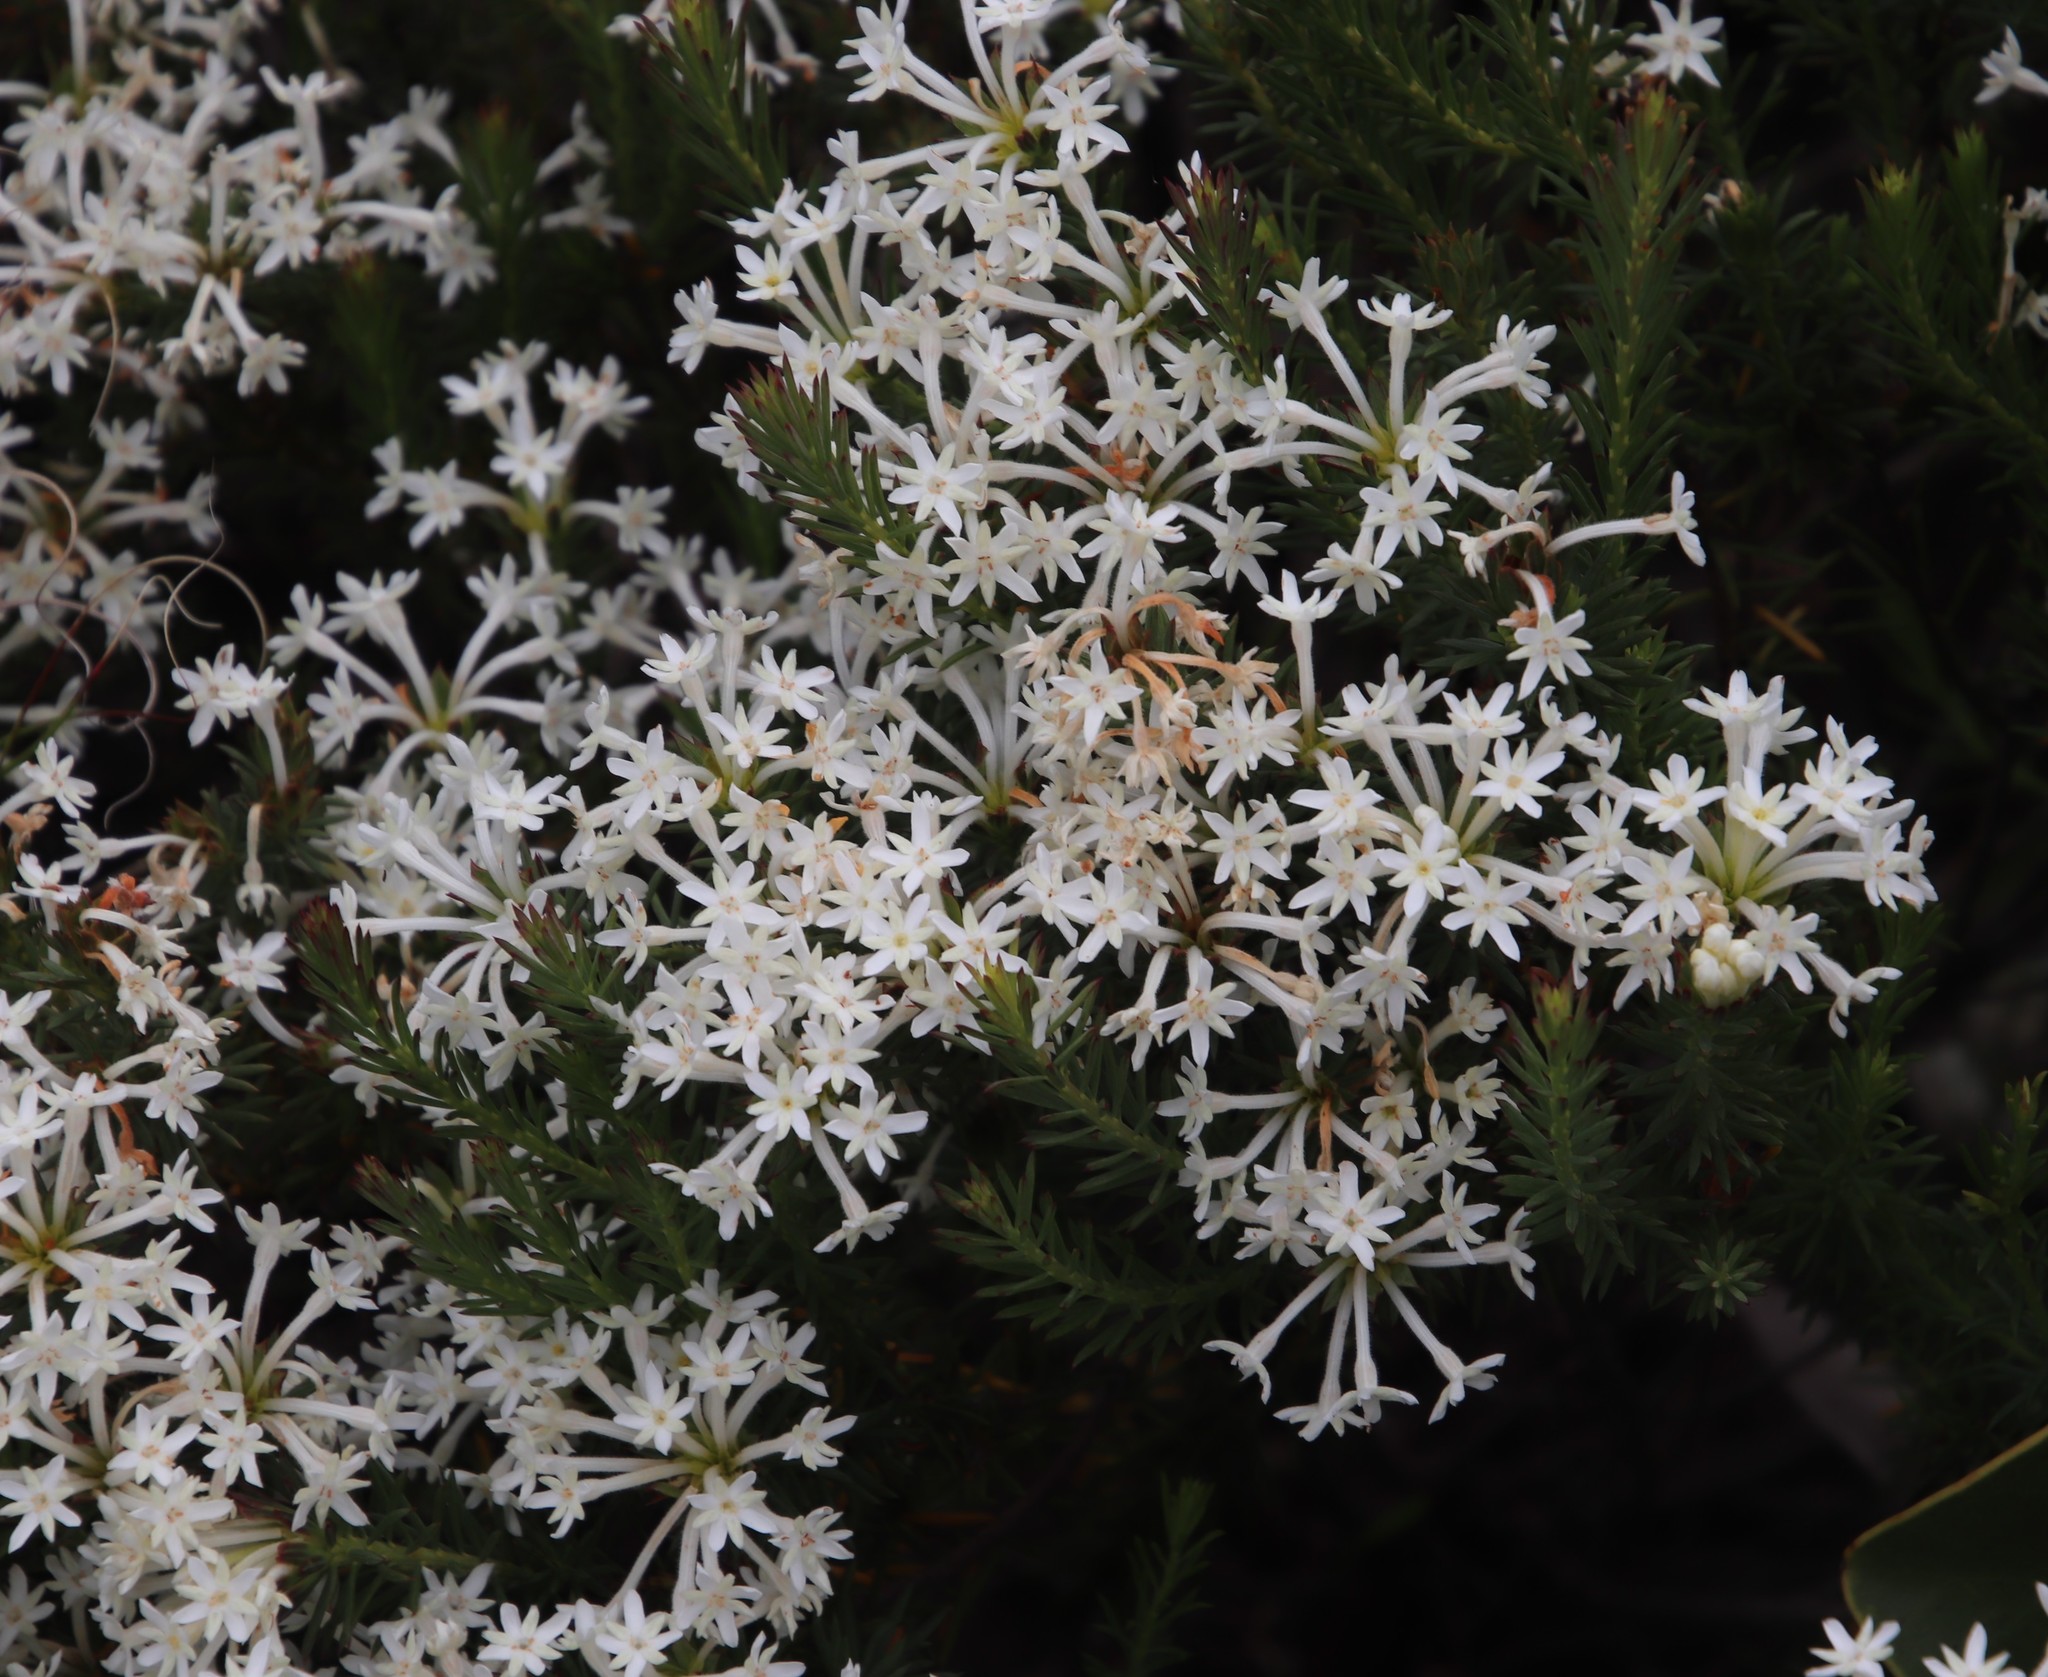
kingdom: Plantae
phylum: Tracheophyta
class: Magnoliopsida
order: Malvales
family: Thymelaeaceae
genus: Gnidia
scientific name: Gnidia pinifolia
